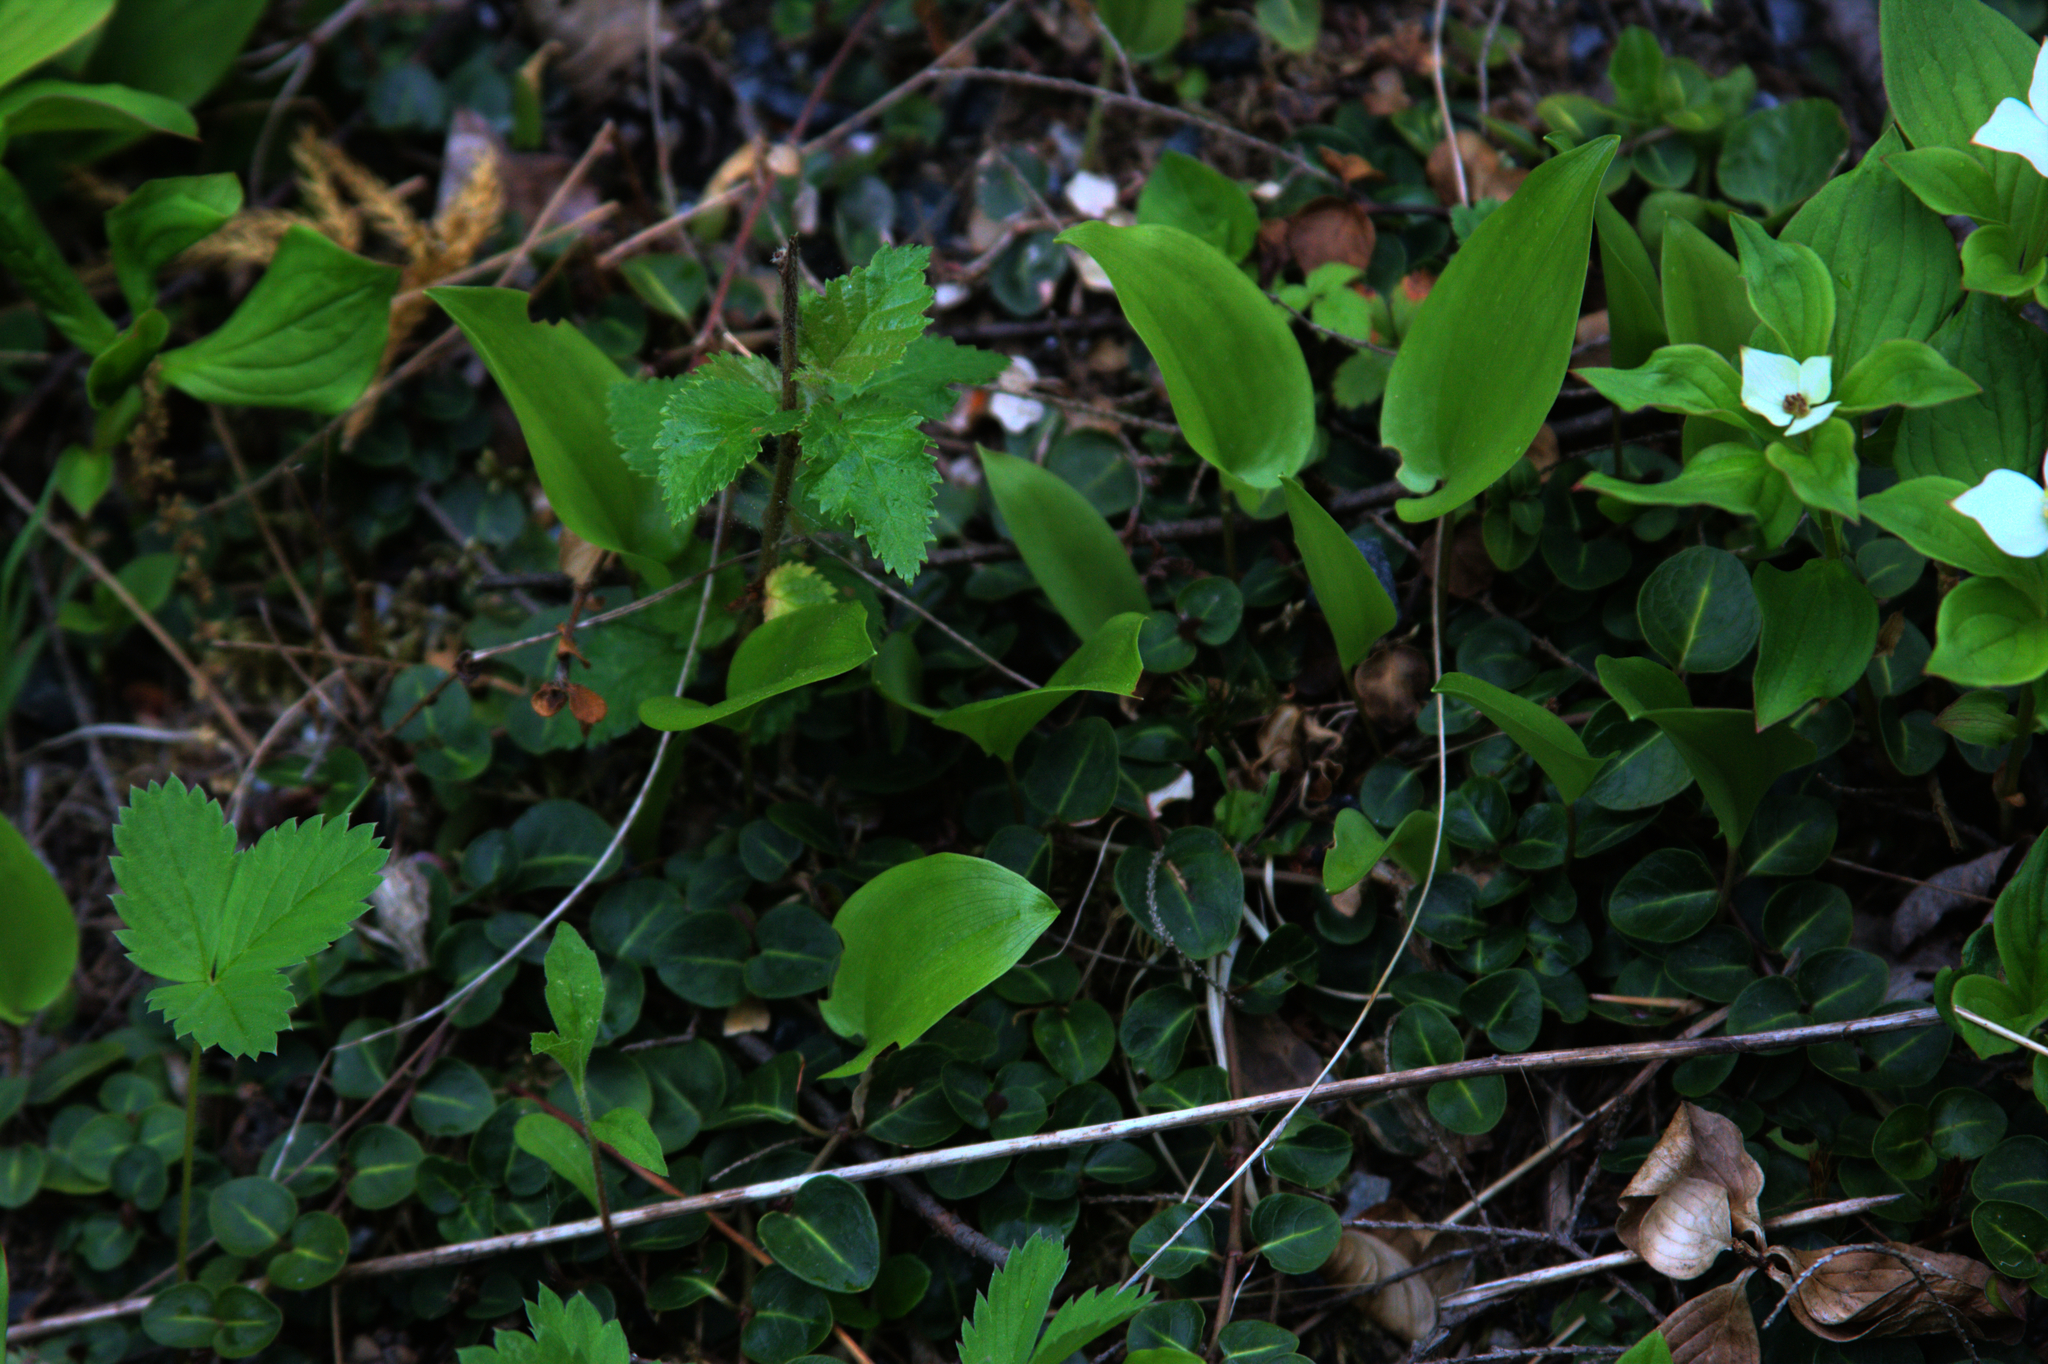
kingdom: Plantae
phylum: Tracheophyta
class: Liliopsida
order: Asparagales
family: Asparagaceae
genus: Maianthemum
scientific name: Maianthemum canadense
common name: False lily-of-the-valley
